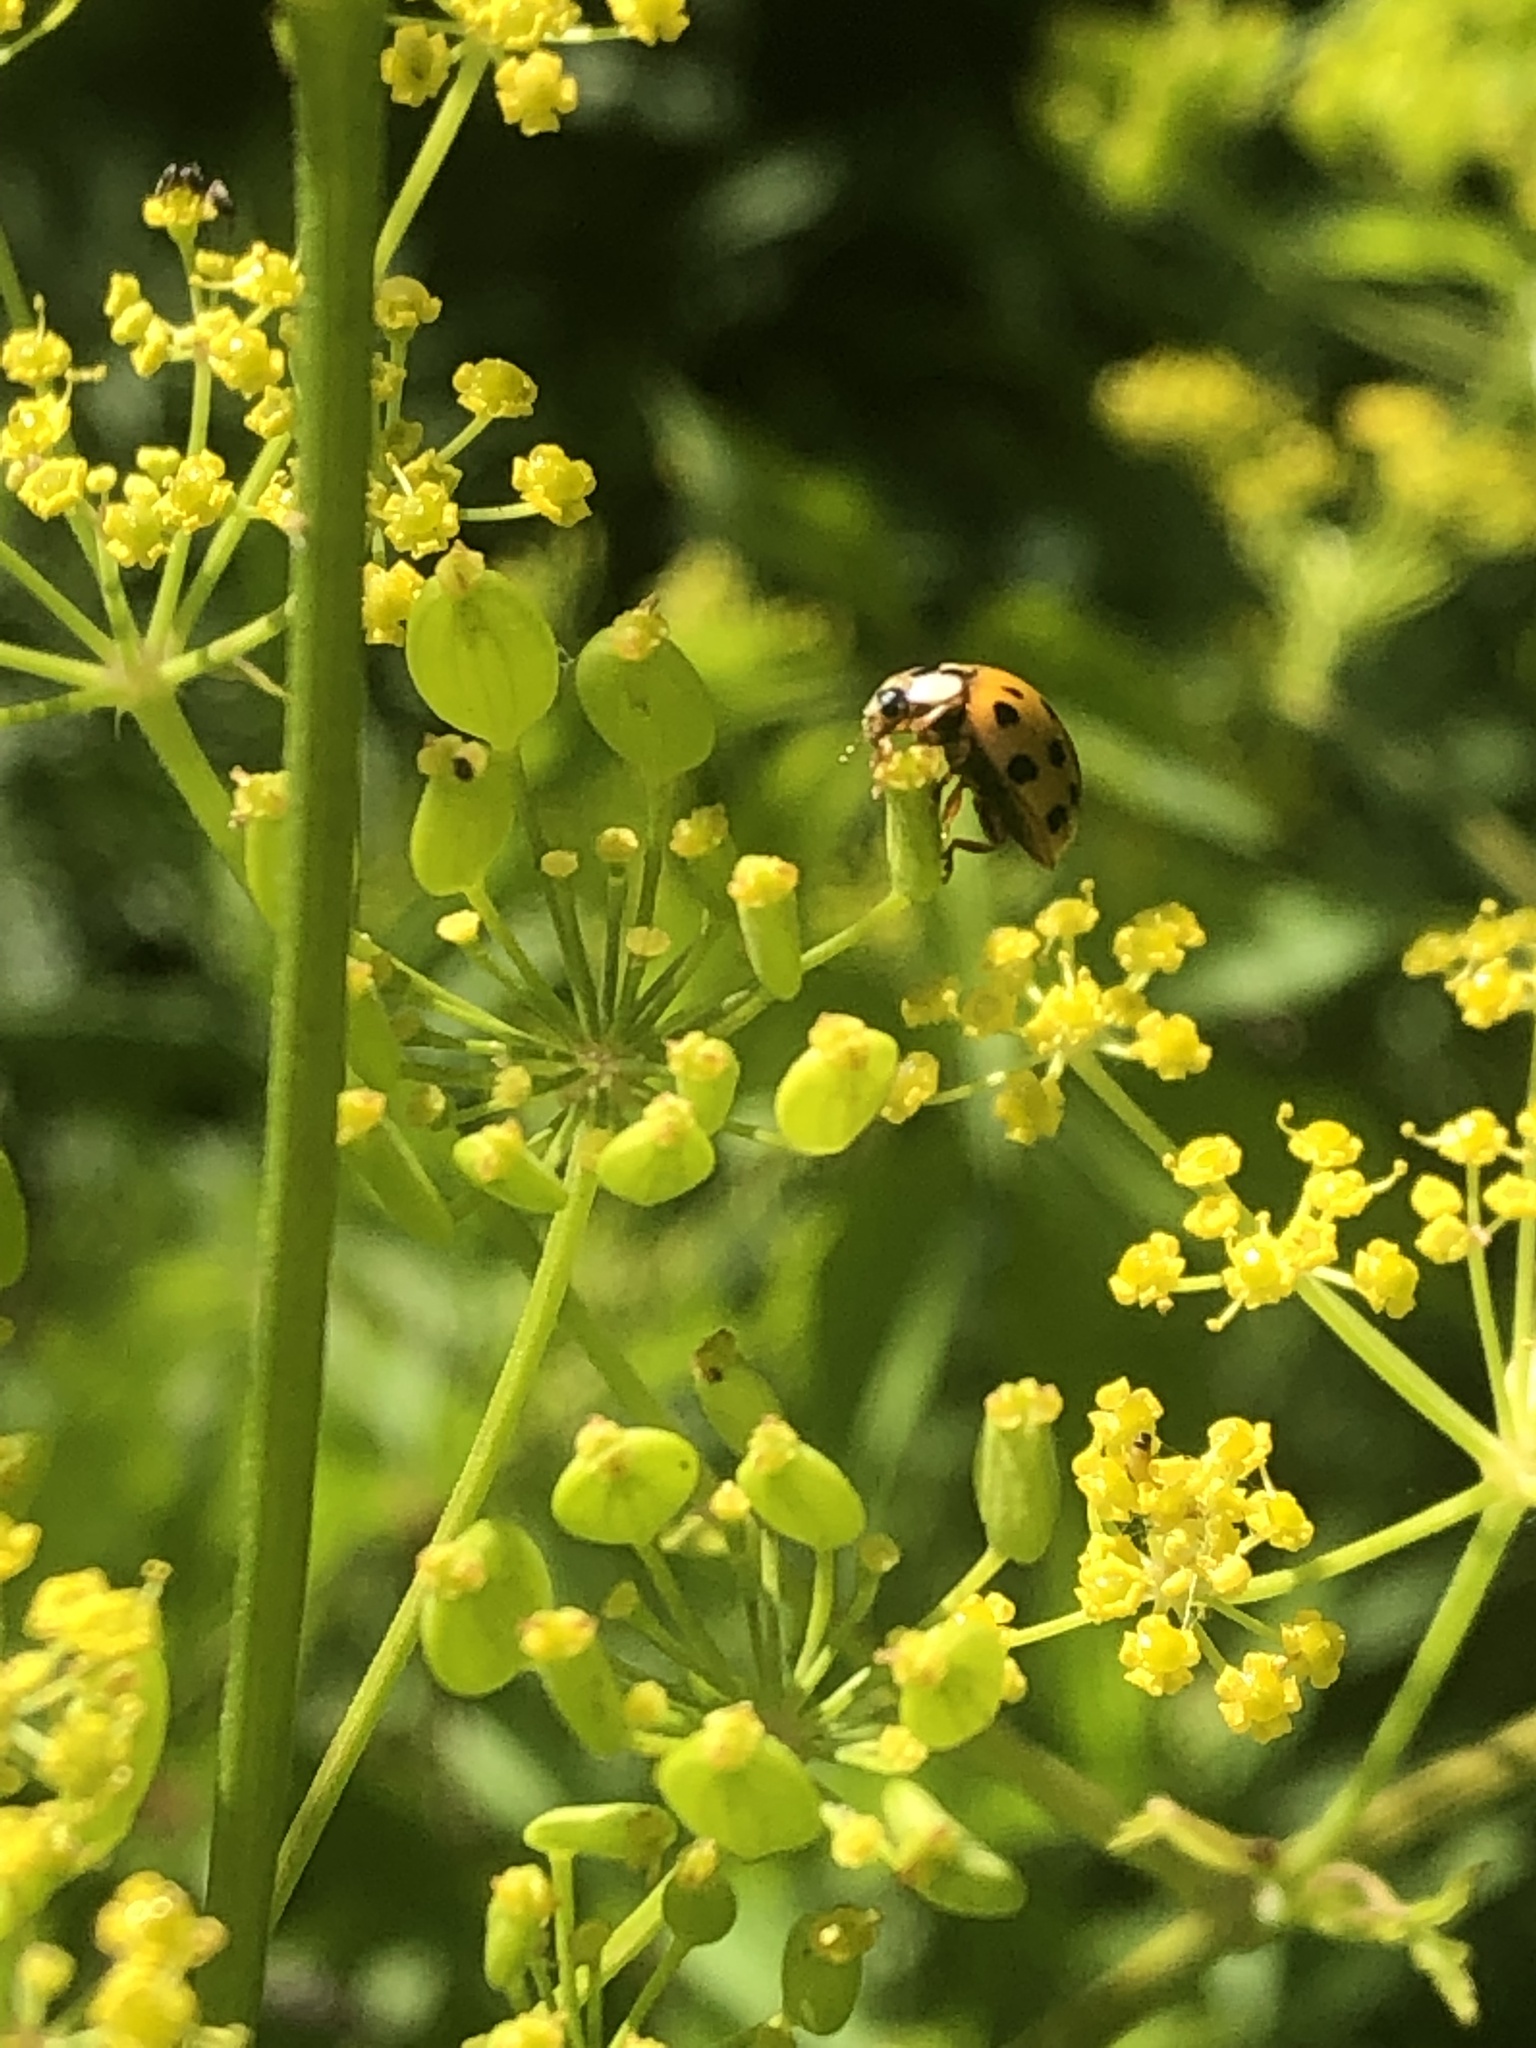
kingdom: Animalia
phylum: Arthropoda
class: Insecta
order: Coleoptera
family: Coccinellidae
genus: Harmonia
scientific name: Harmonia axyridis
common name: Harlequin ladybird
